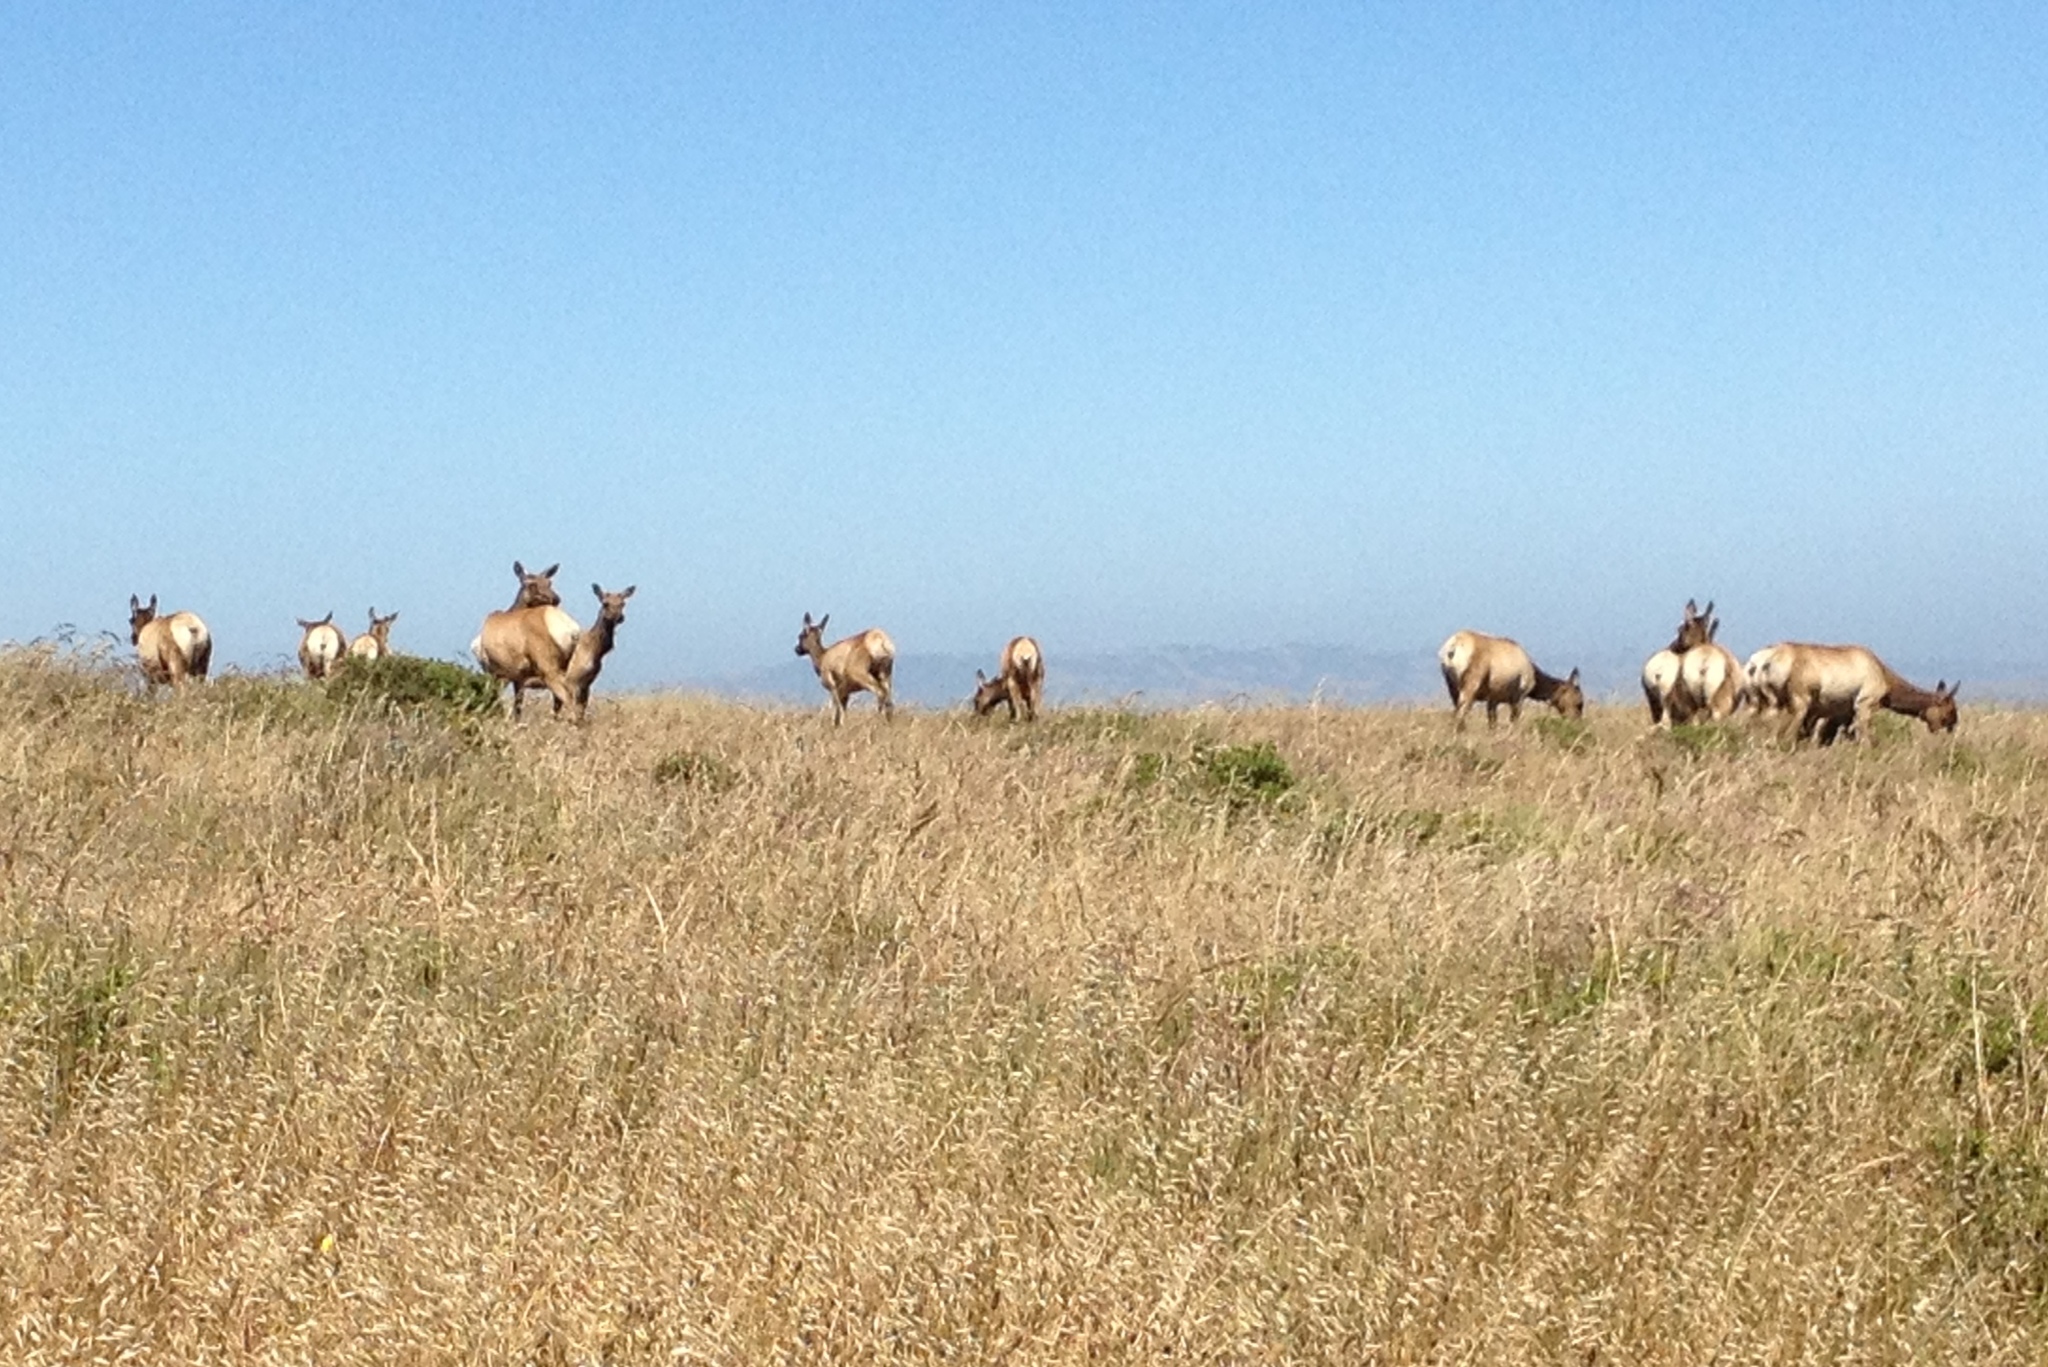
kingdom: Animalia
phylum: Chordata
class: Mammalia
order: Artiodactyla
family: Cervidae
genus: Cervus
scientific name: Cervus elaphus
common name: Red deer
